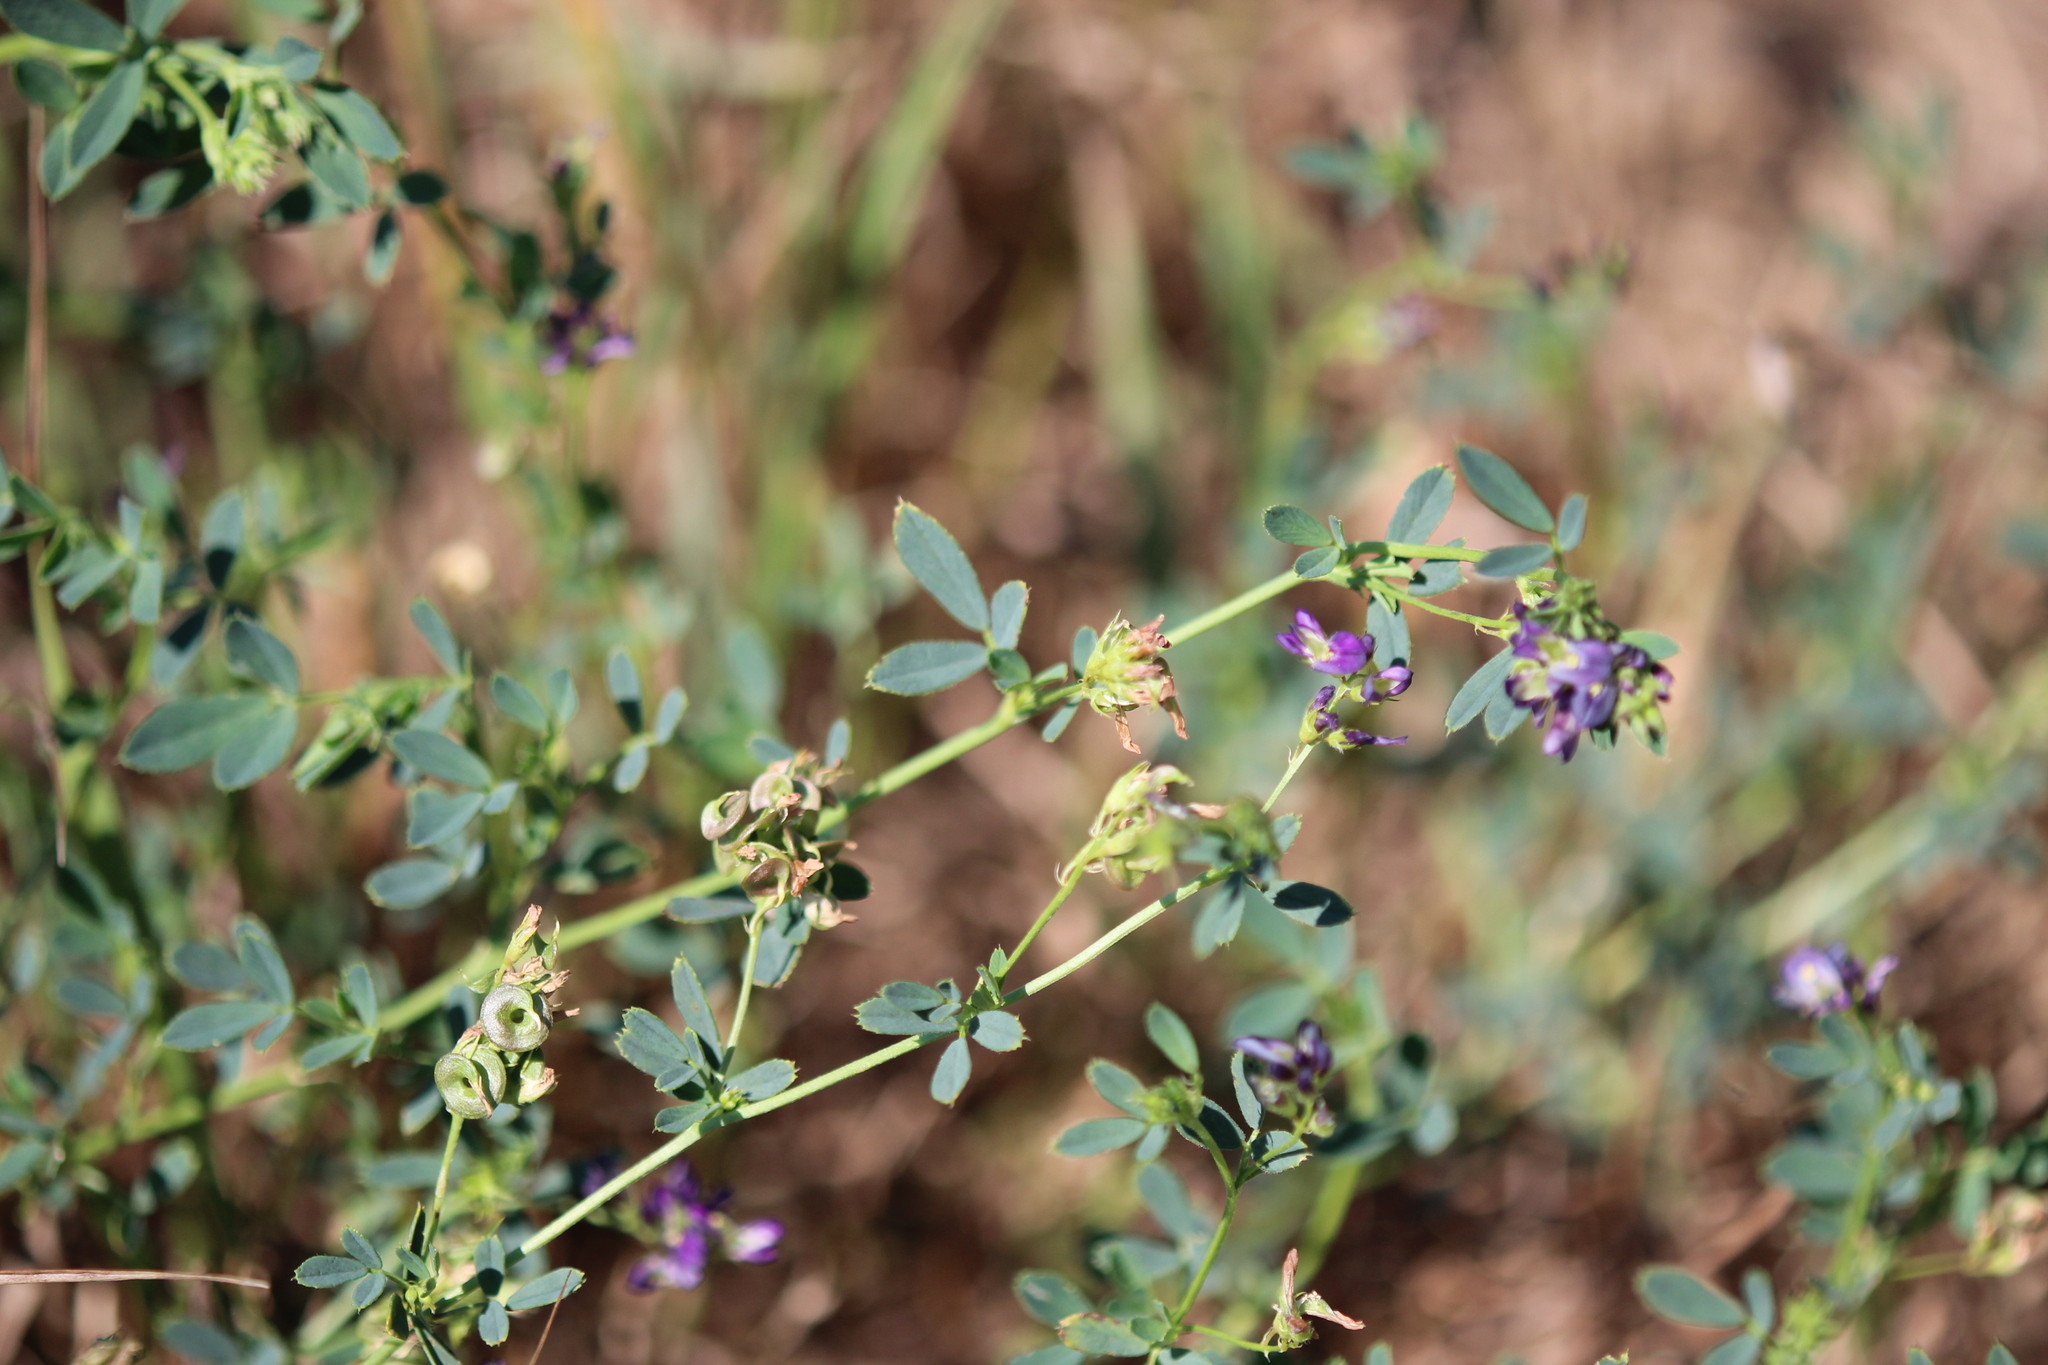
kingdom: Plantae
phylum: Tracheophyta
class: Magnoliopsida
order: Fabales
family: Fabaceae
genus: Medicago
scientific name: Medicago sativa
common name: Alfalfa
